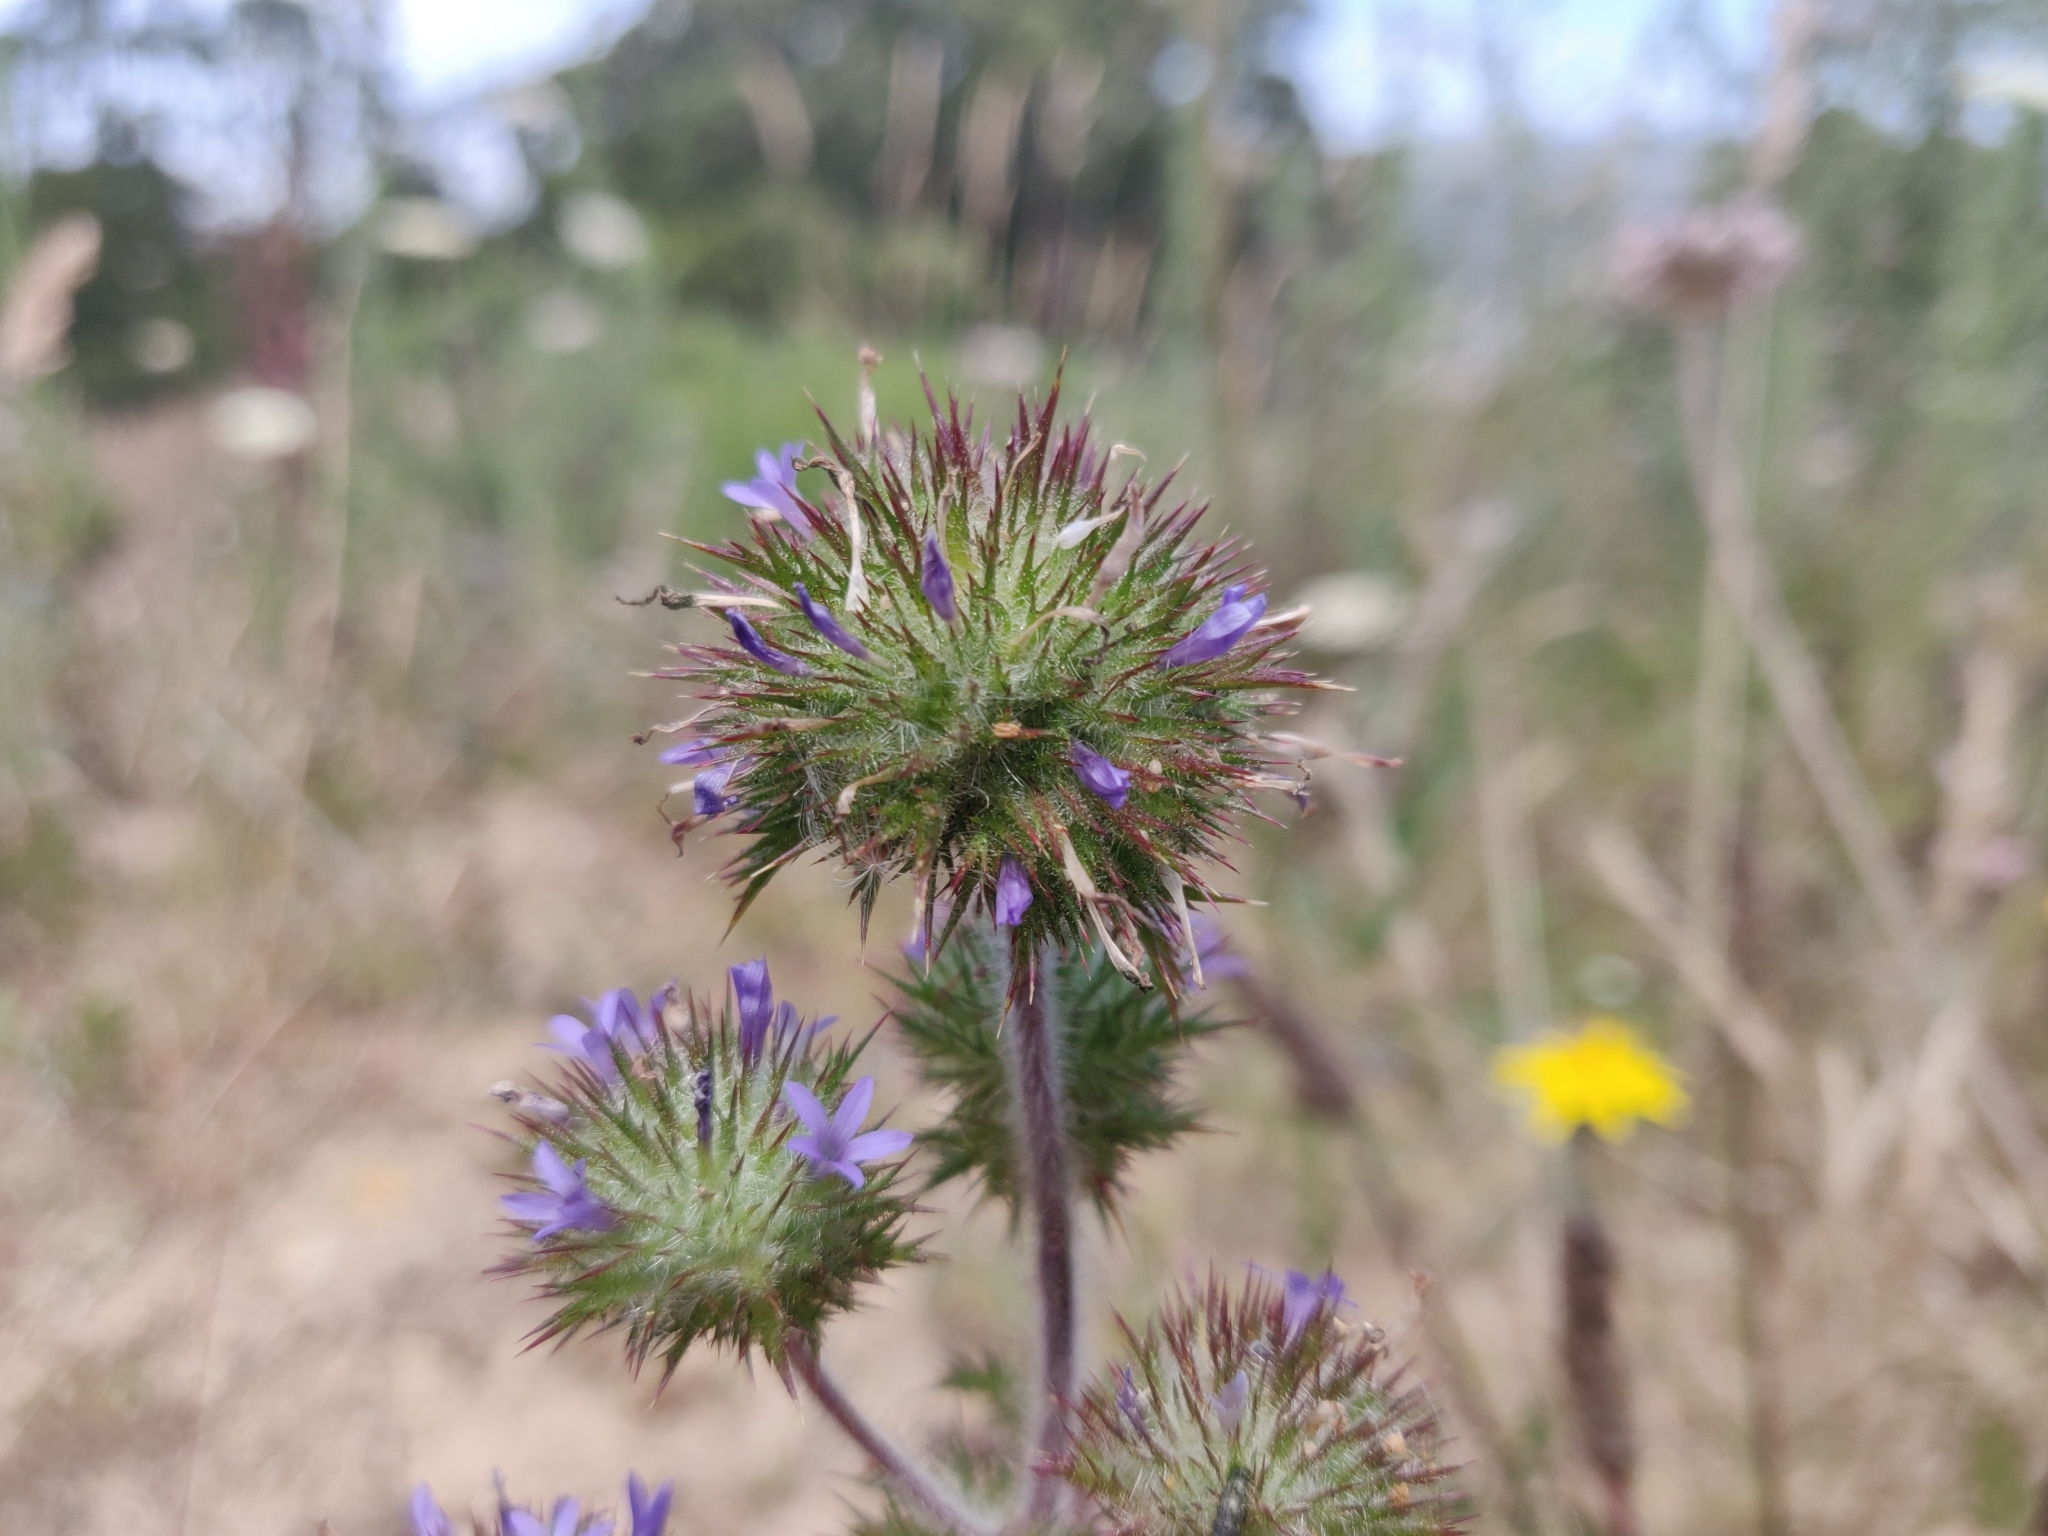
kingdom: Plantae
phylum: Tracheophyta
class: Magnoliopsida
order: Ericales
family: Polemoniaceae
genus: Navarretia
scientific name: Navarretia squarrosa
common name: Skunkweed
